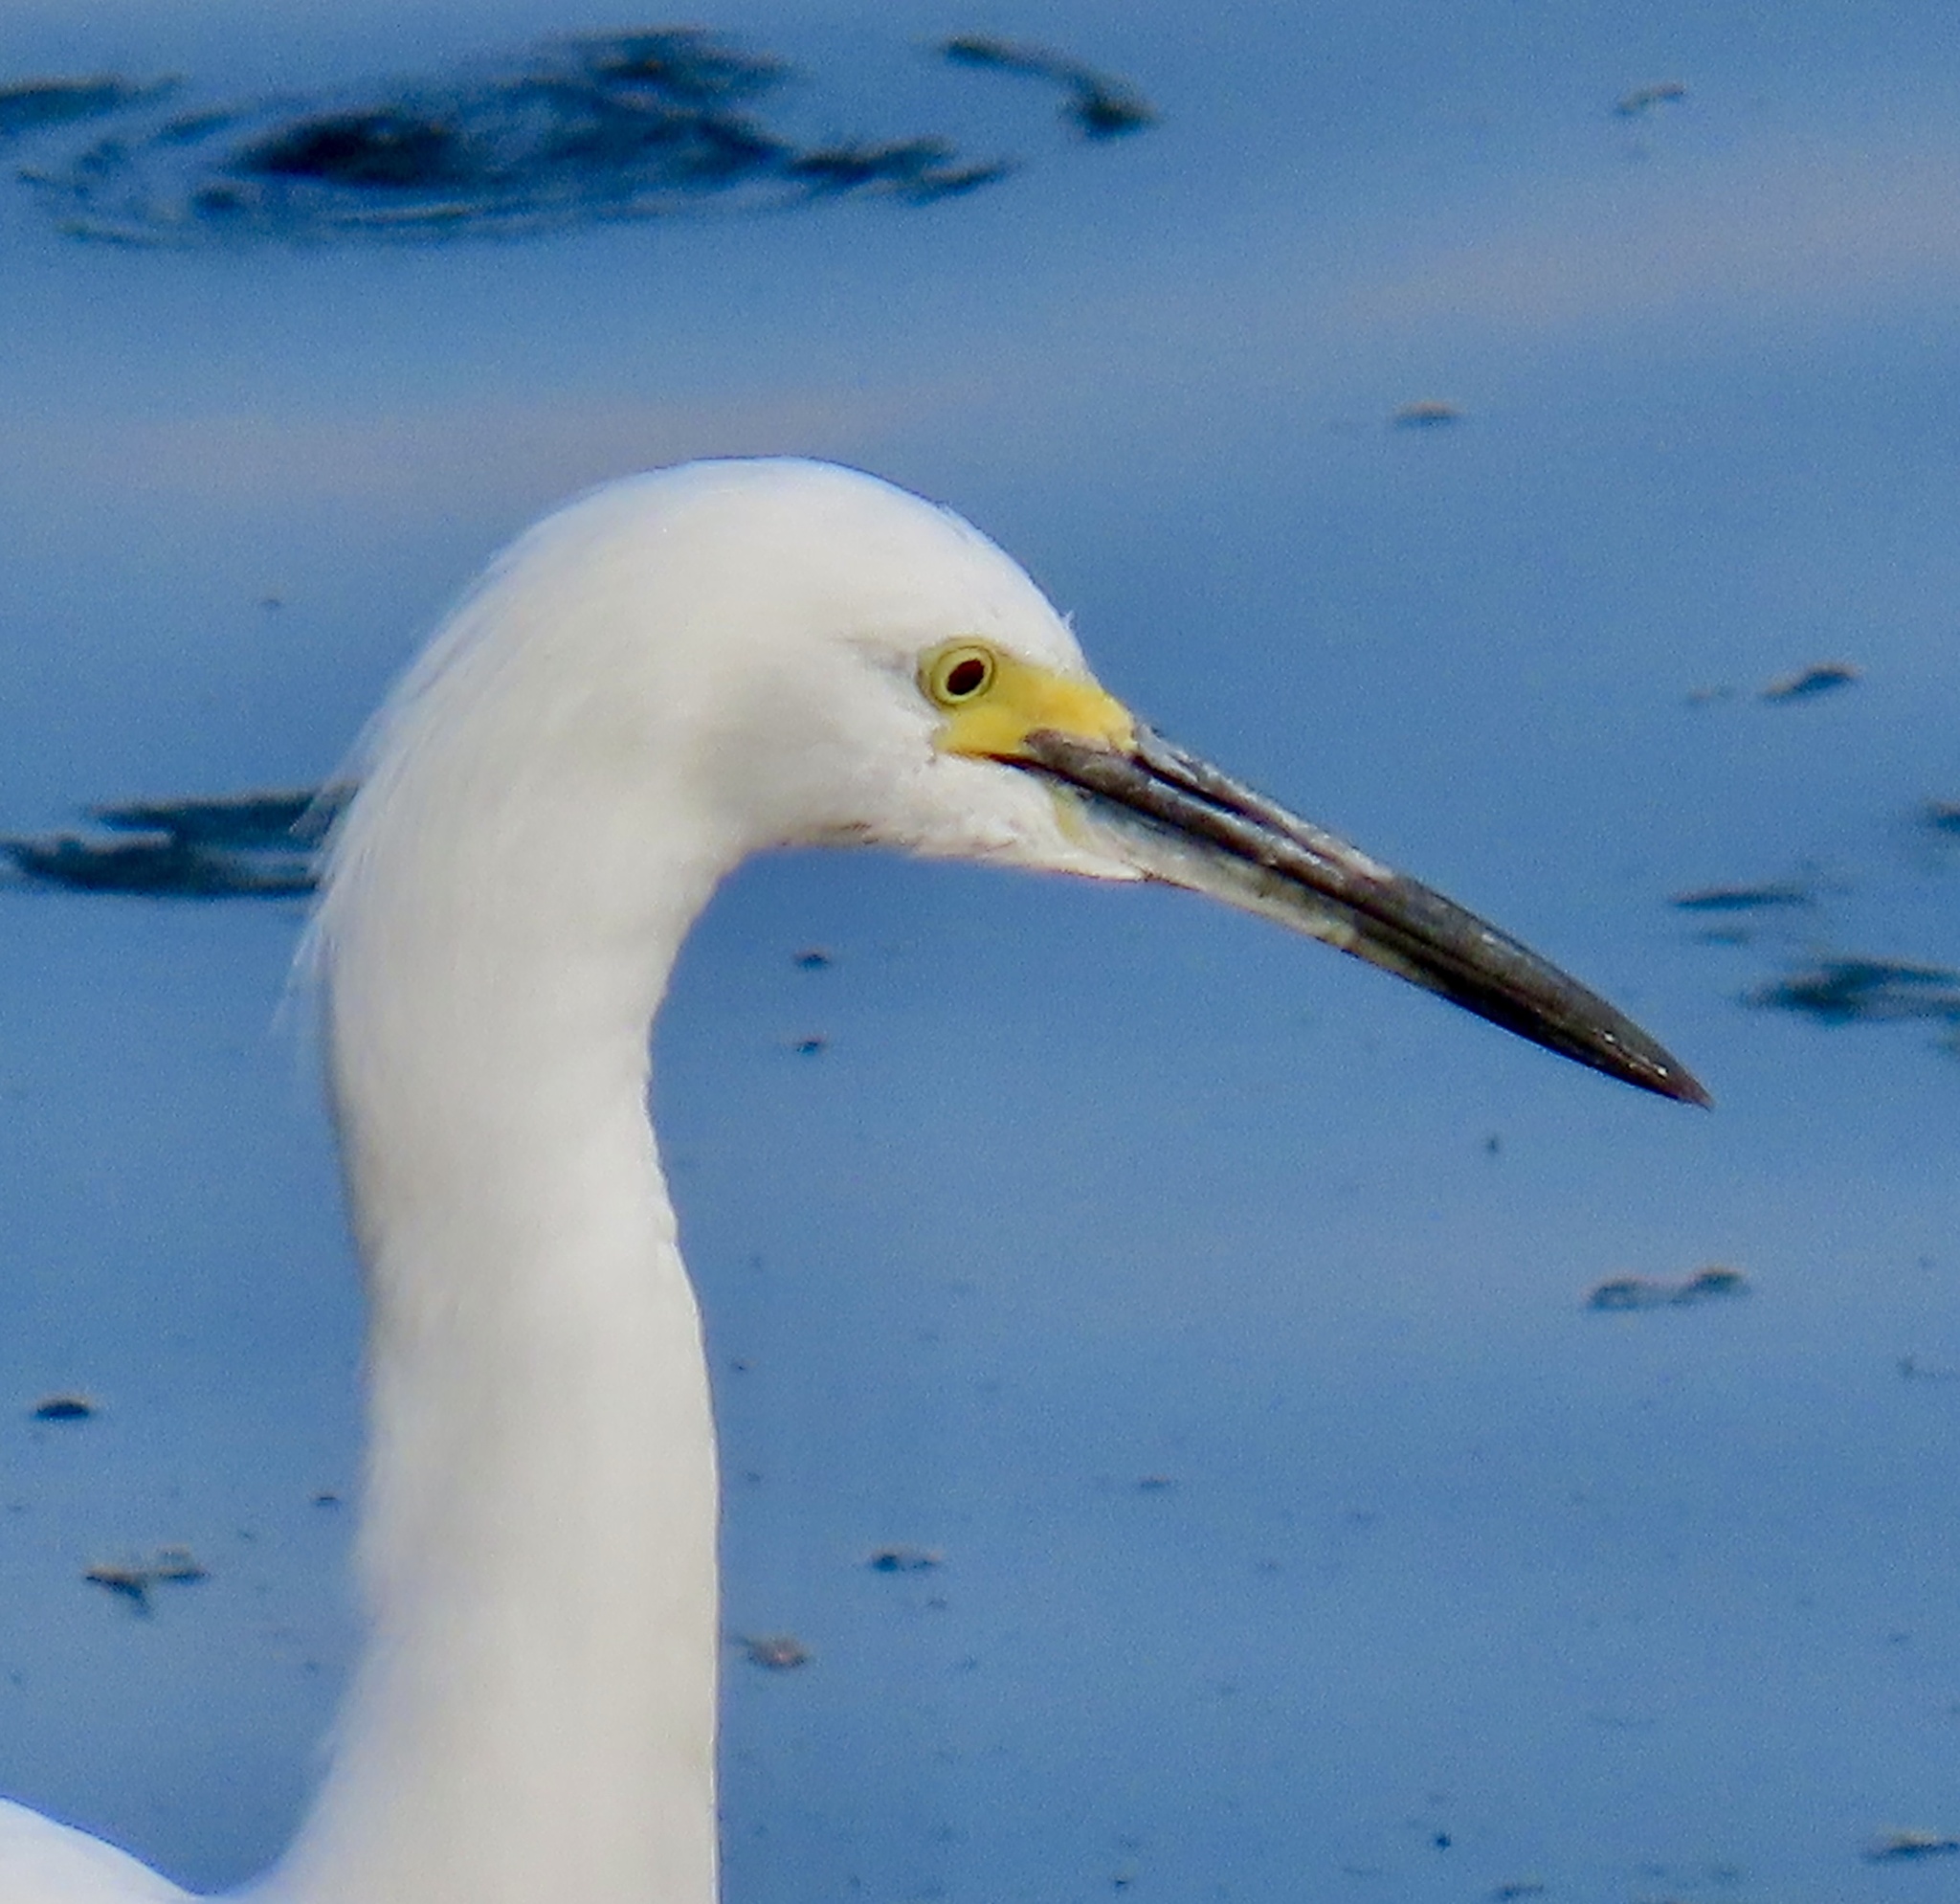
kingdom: Animalia
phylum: Chordata
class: Aves
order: Pelecaniformes
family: Ardeidae
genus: Egretta
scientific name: Egretta thula
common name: Snowy egret
